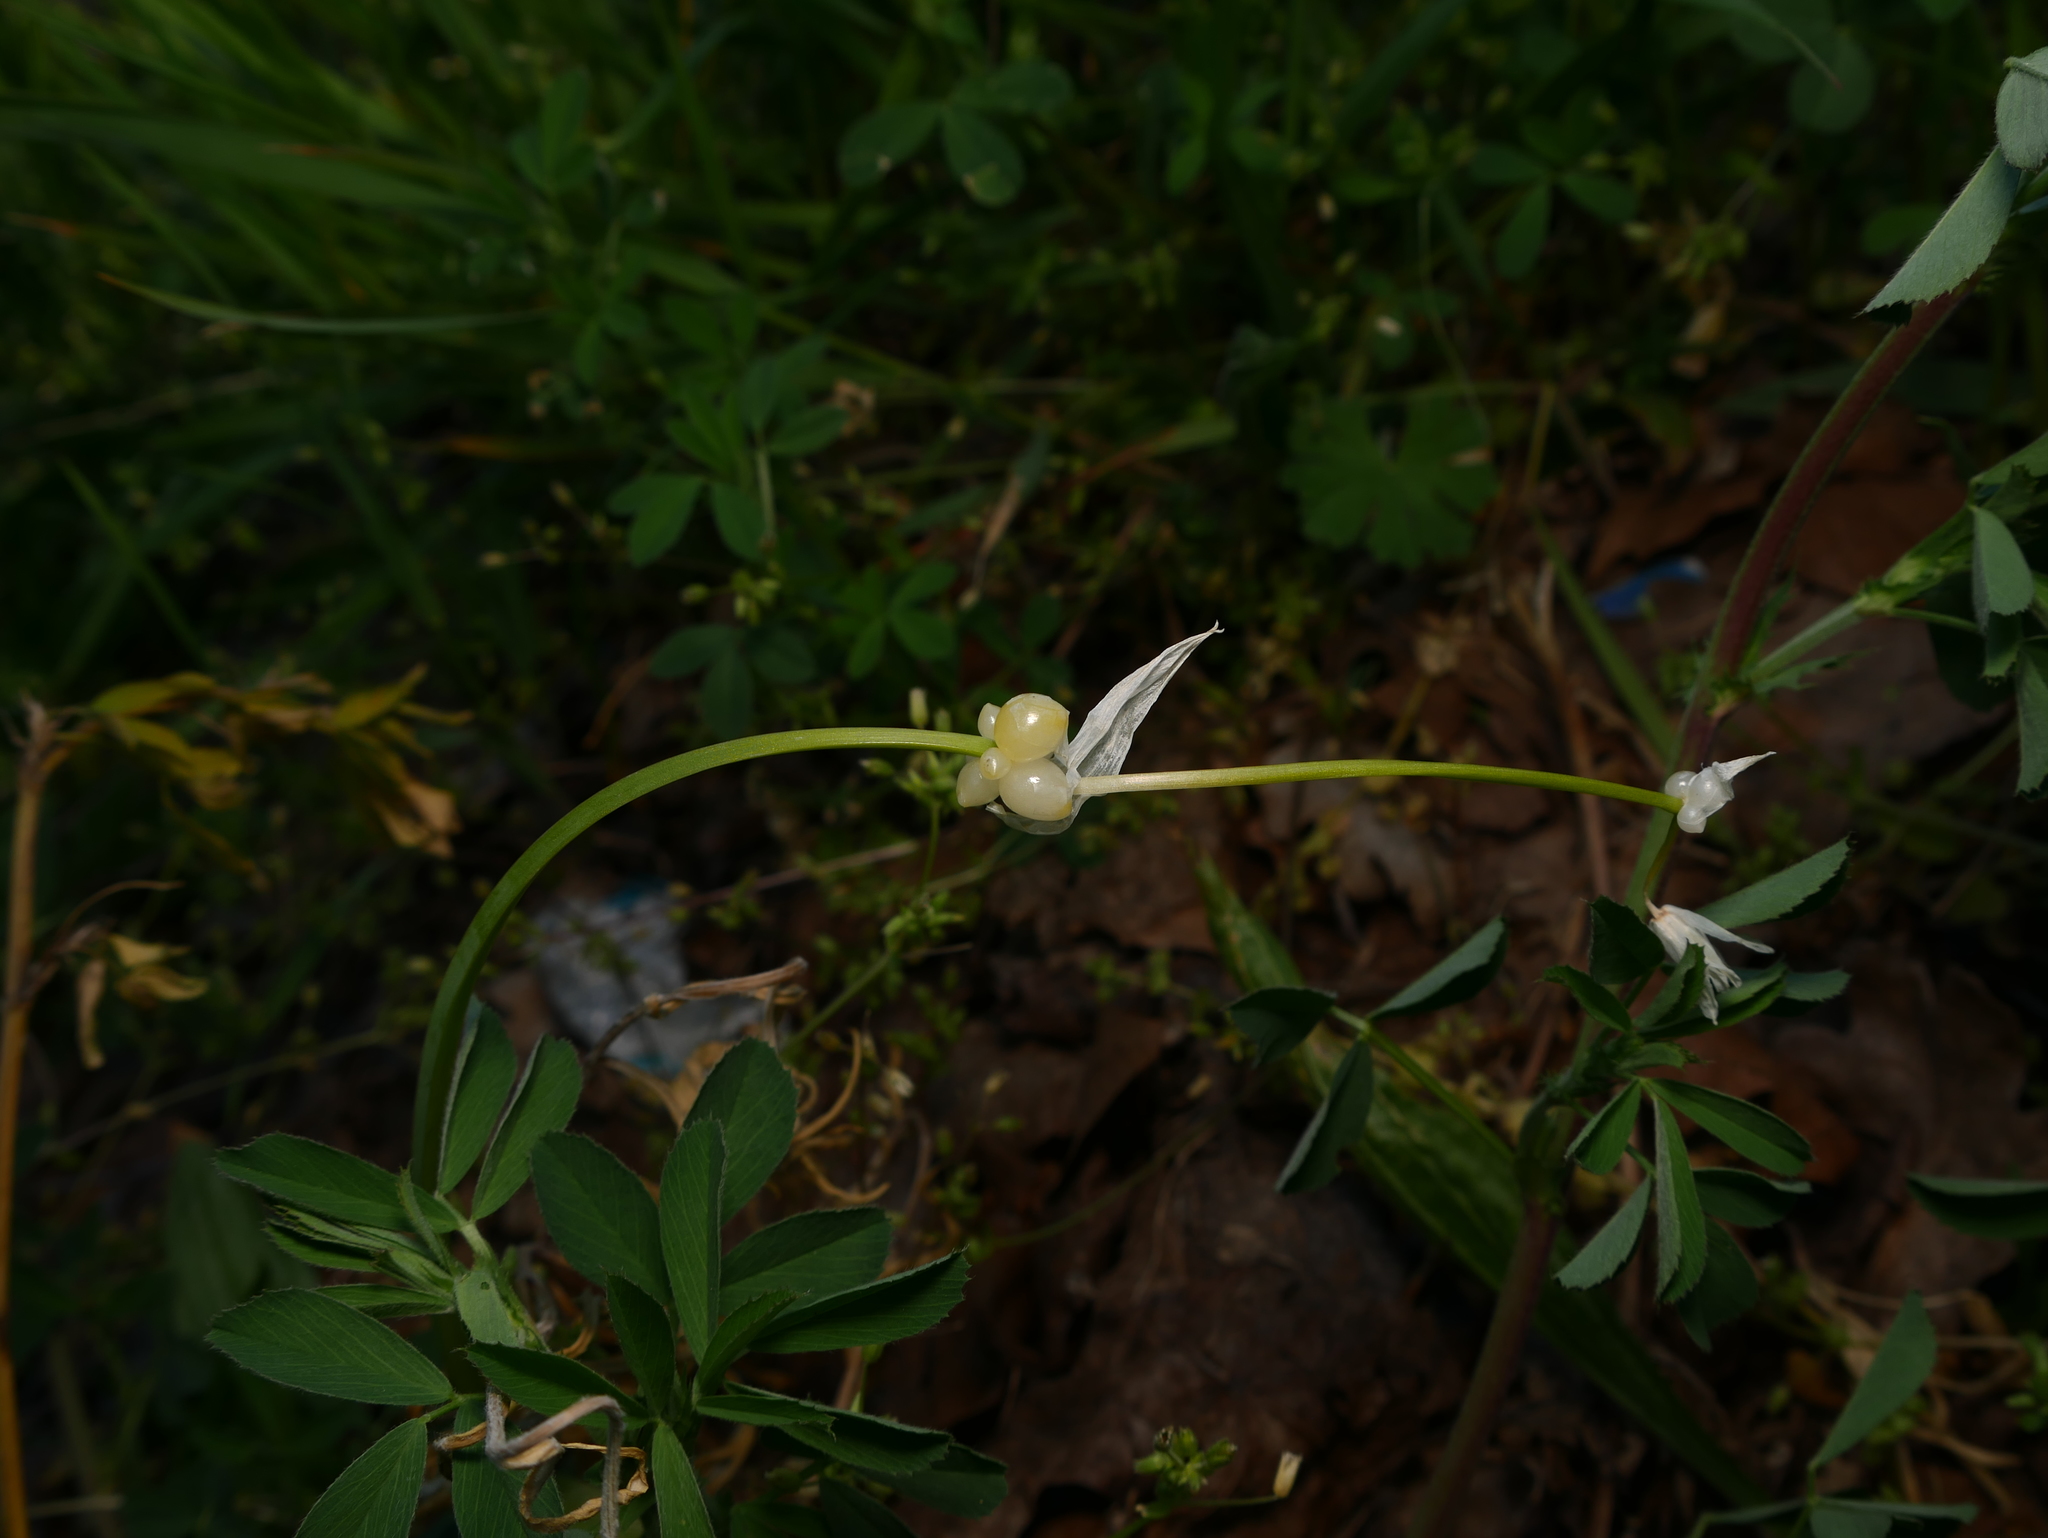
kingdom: Plantae
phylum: Tracheophyta
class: Liliopsida
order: Asparagales
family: Amaryllidaceae
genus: Allium
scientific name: Allium paradoxum
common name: Few-flowered garlic
